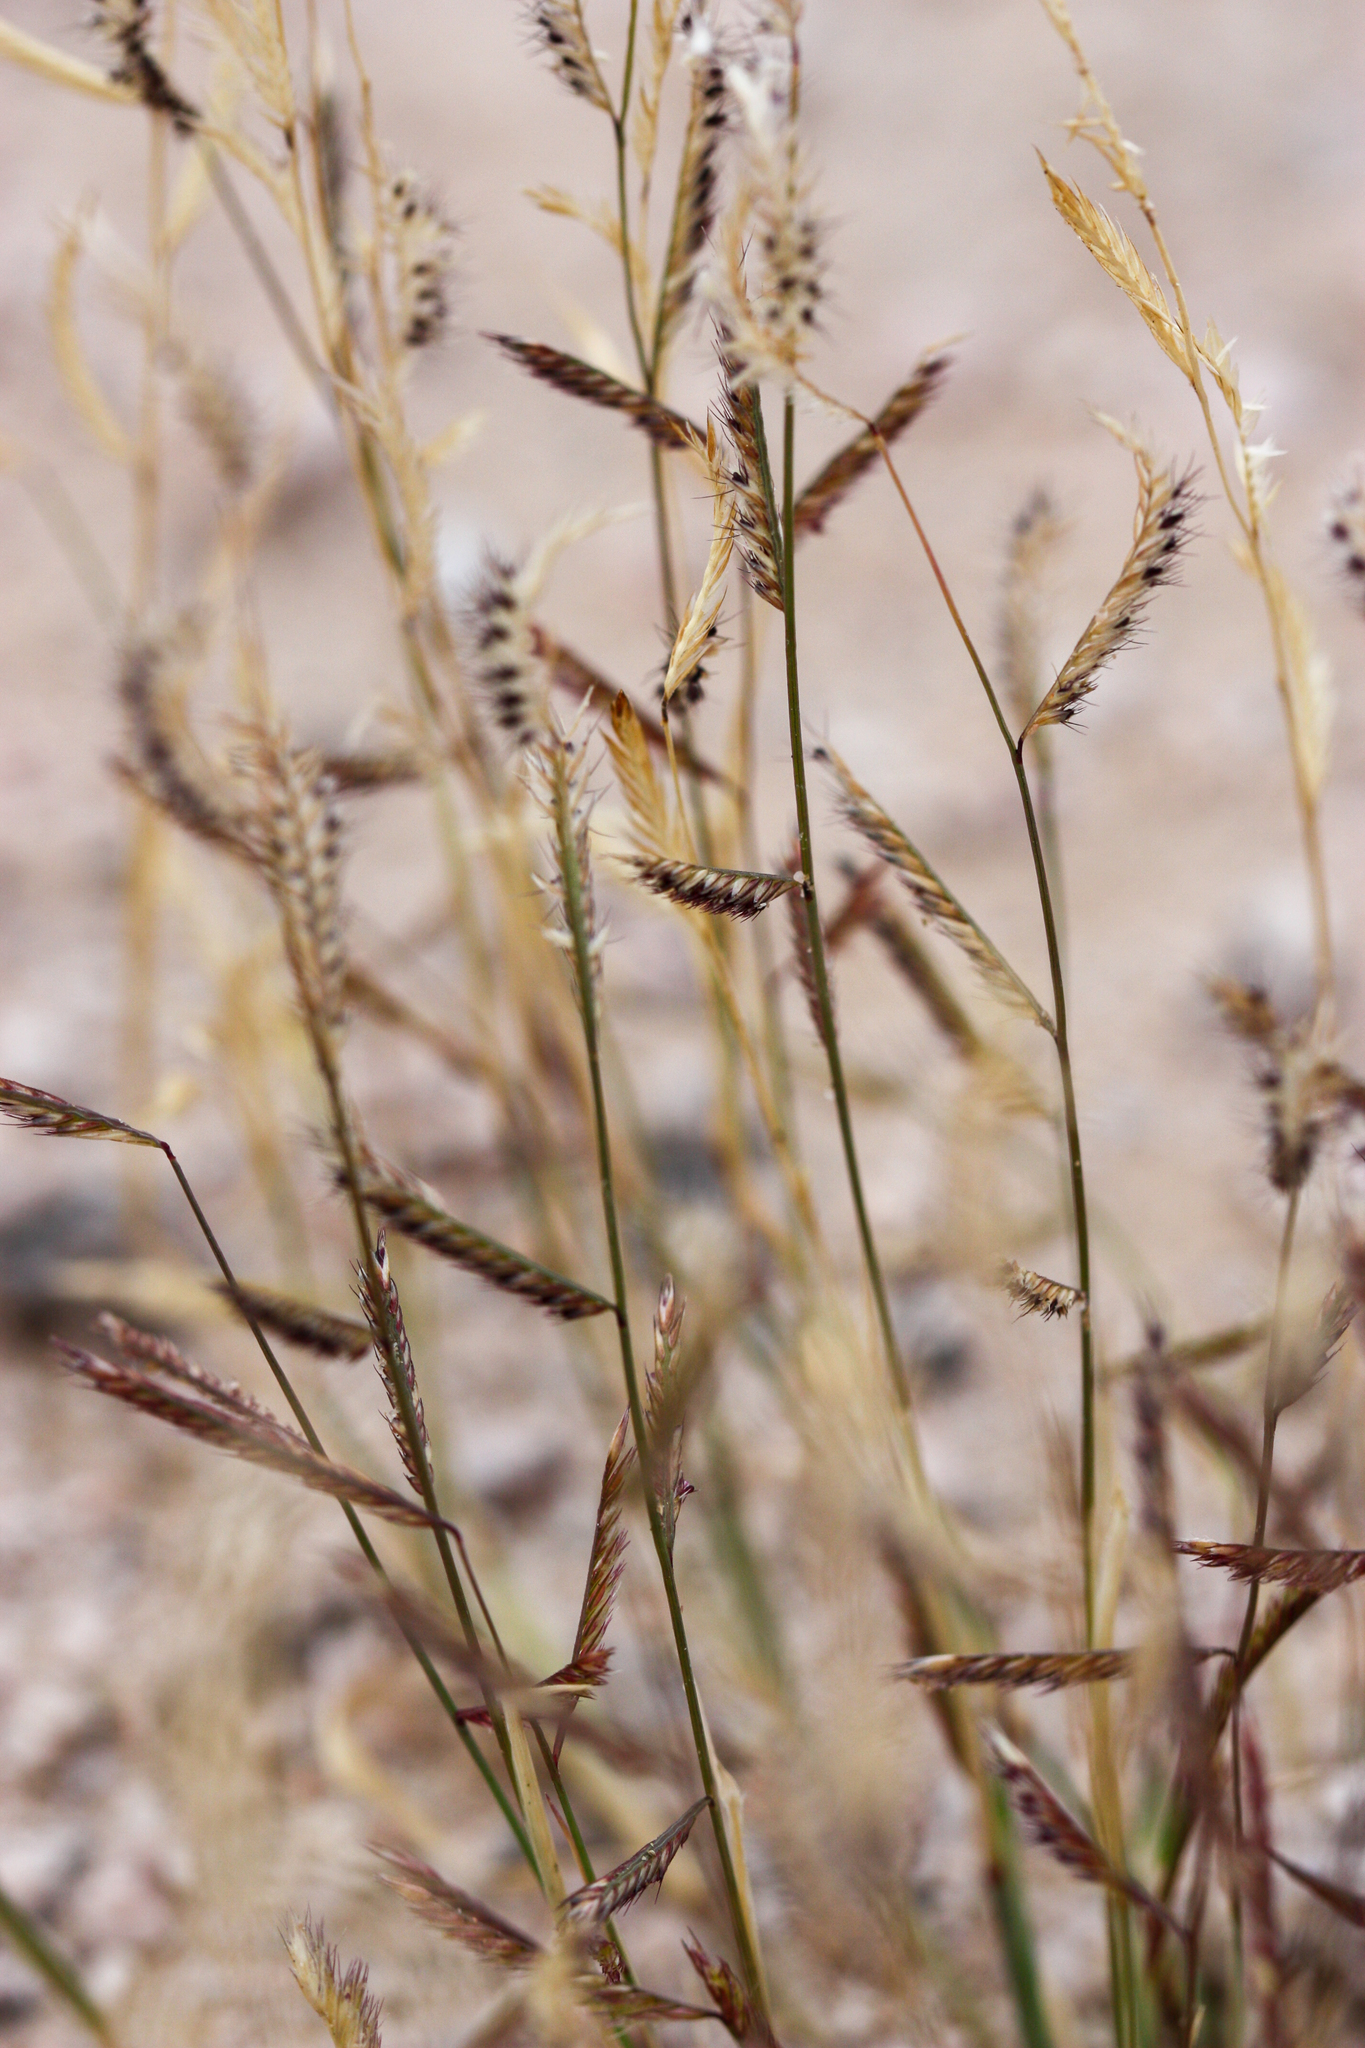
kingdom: Plantae
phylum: Tracheophyta
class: Liliopsida
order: Poales
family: Poaceae
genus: Bouteloua
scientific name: Bouteloua barbata
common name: Six-weeks grama
